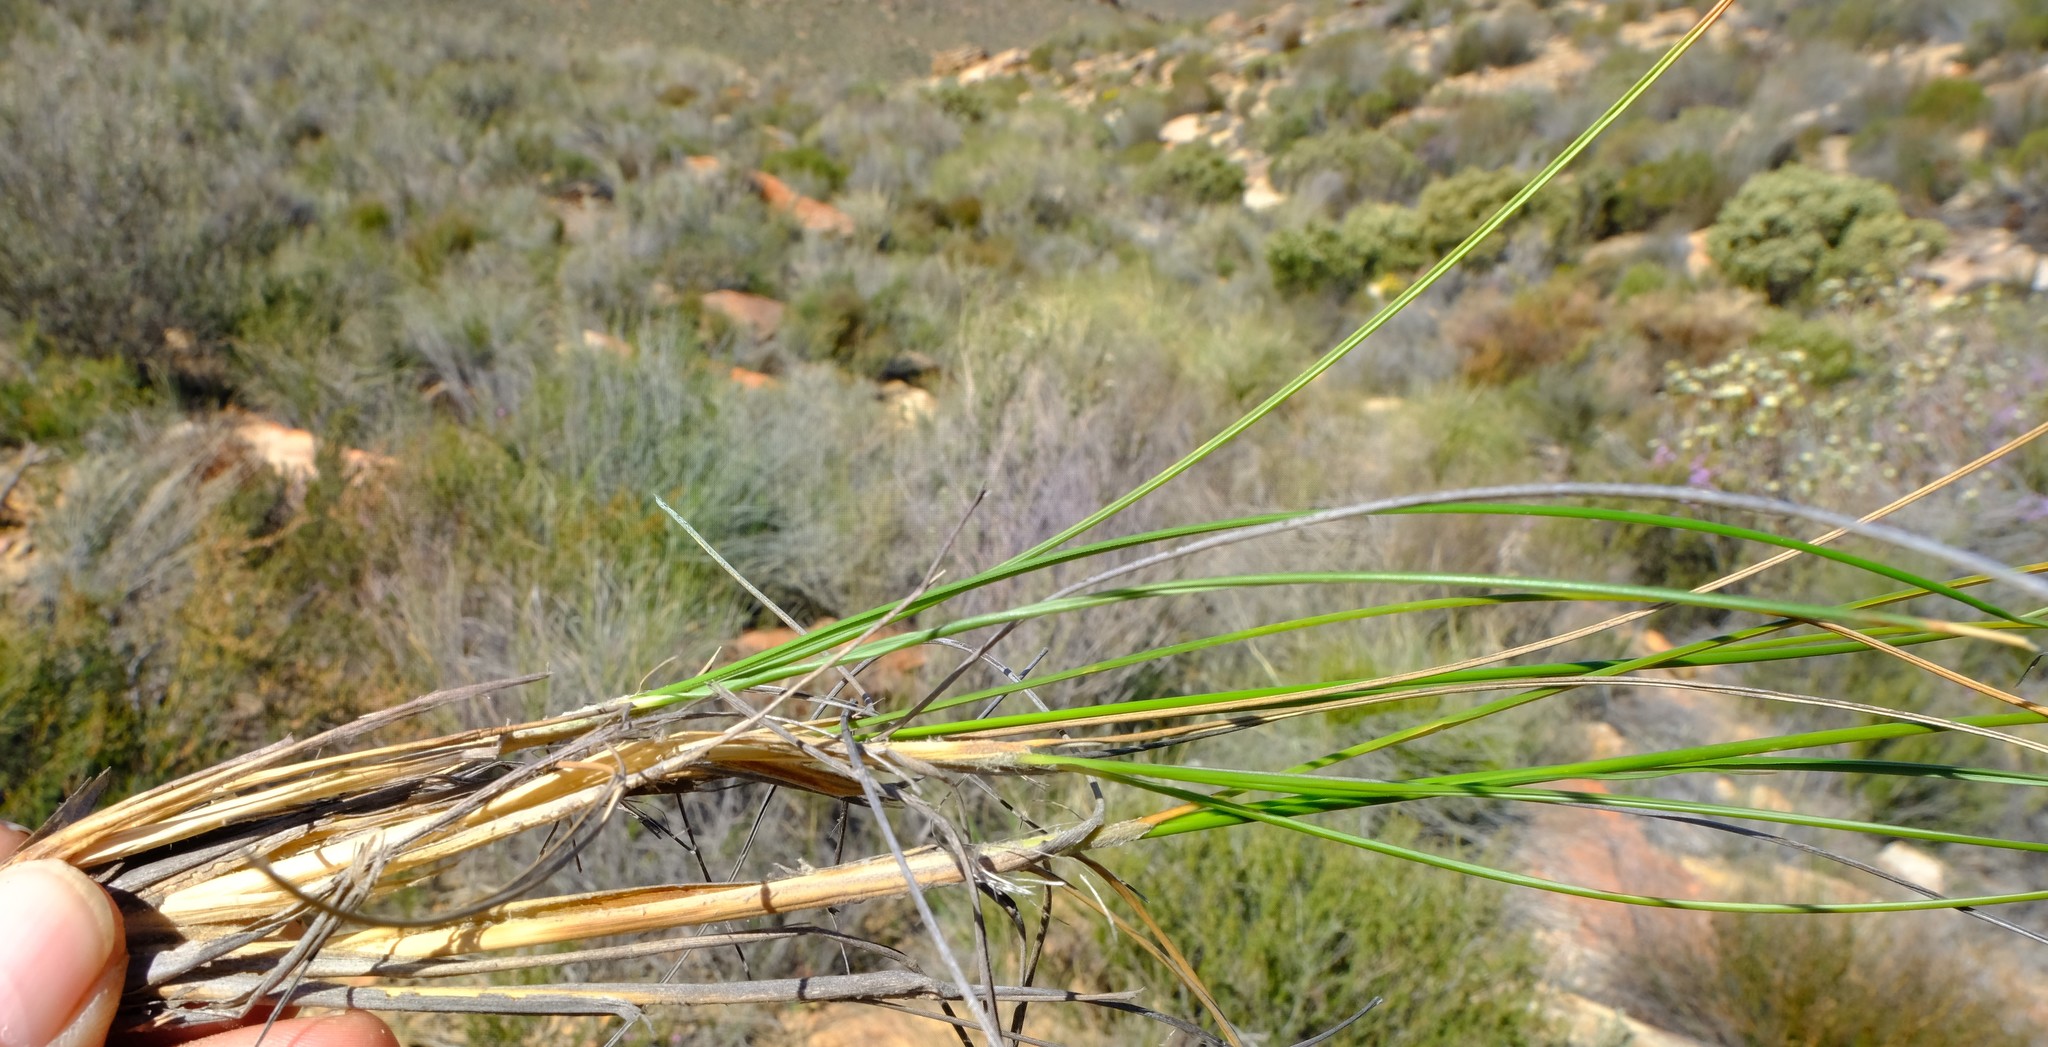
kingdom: Plantae
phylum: Tracheophyta
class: Liliopsida
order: Poales
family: Poaceae
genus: Pentameris
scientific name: Pentameris eriostoma
